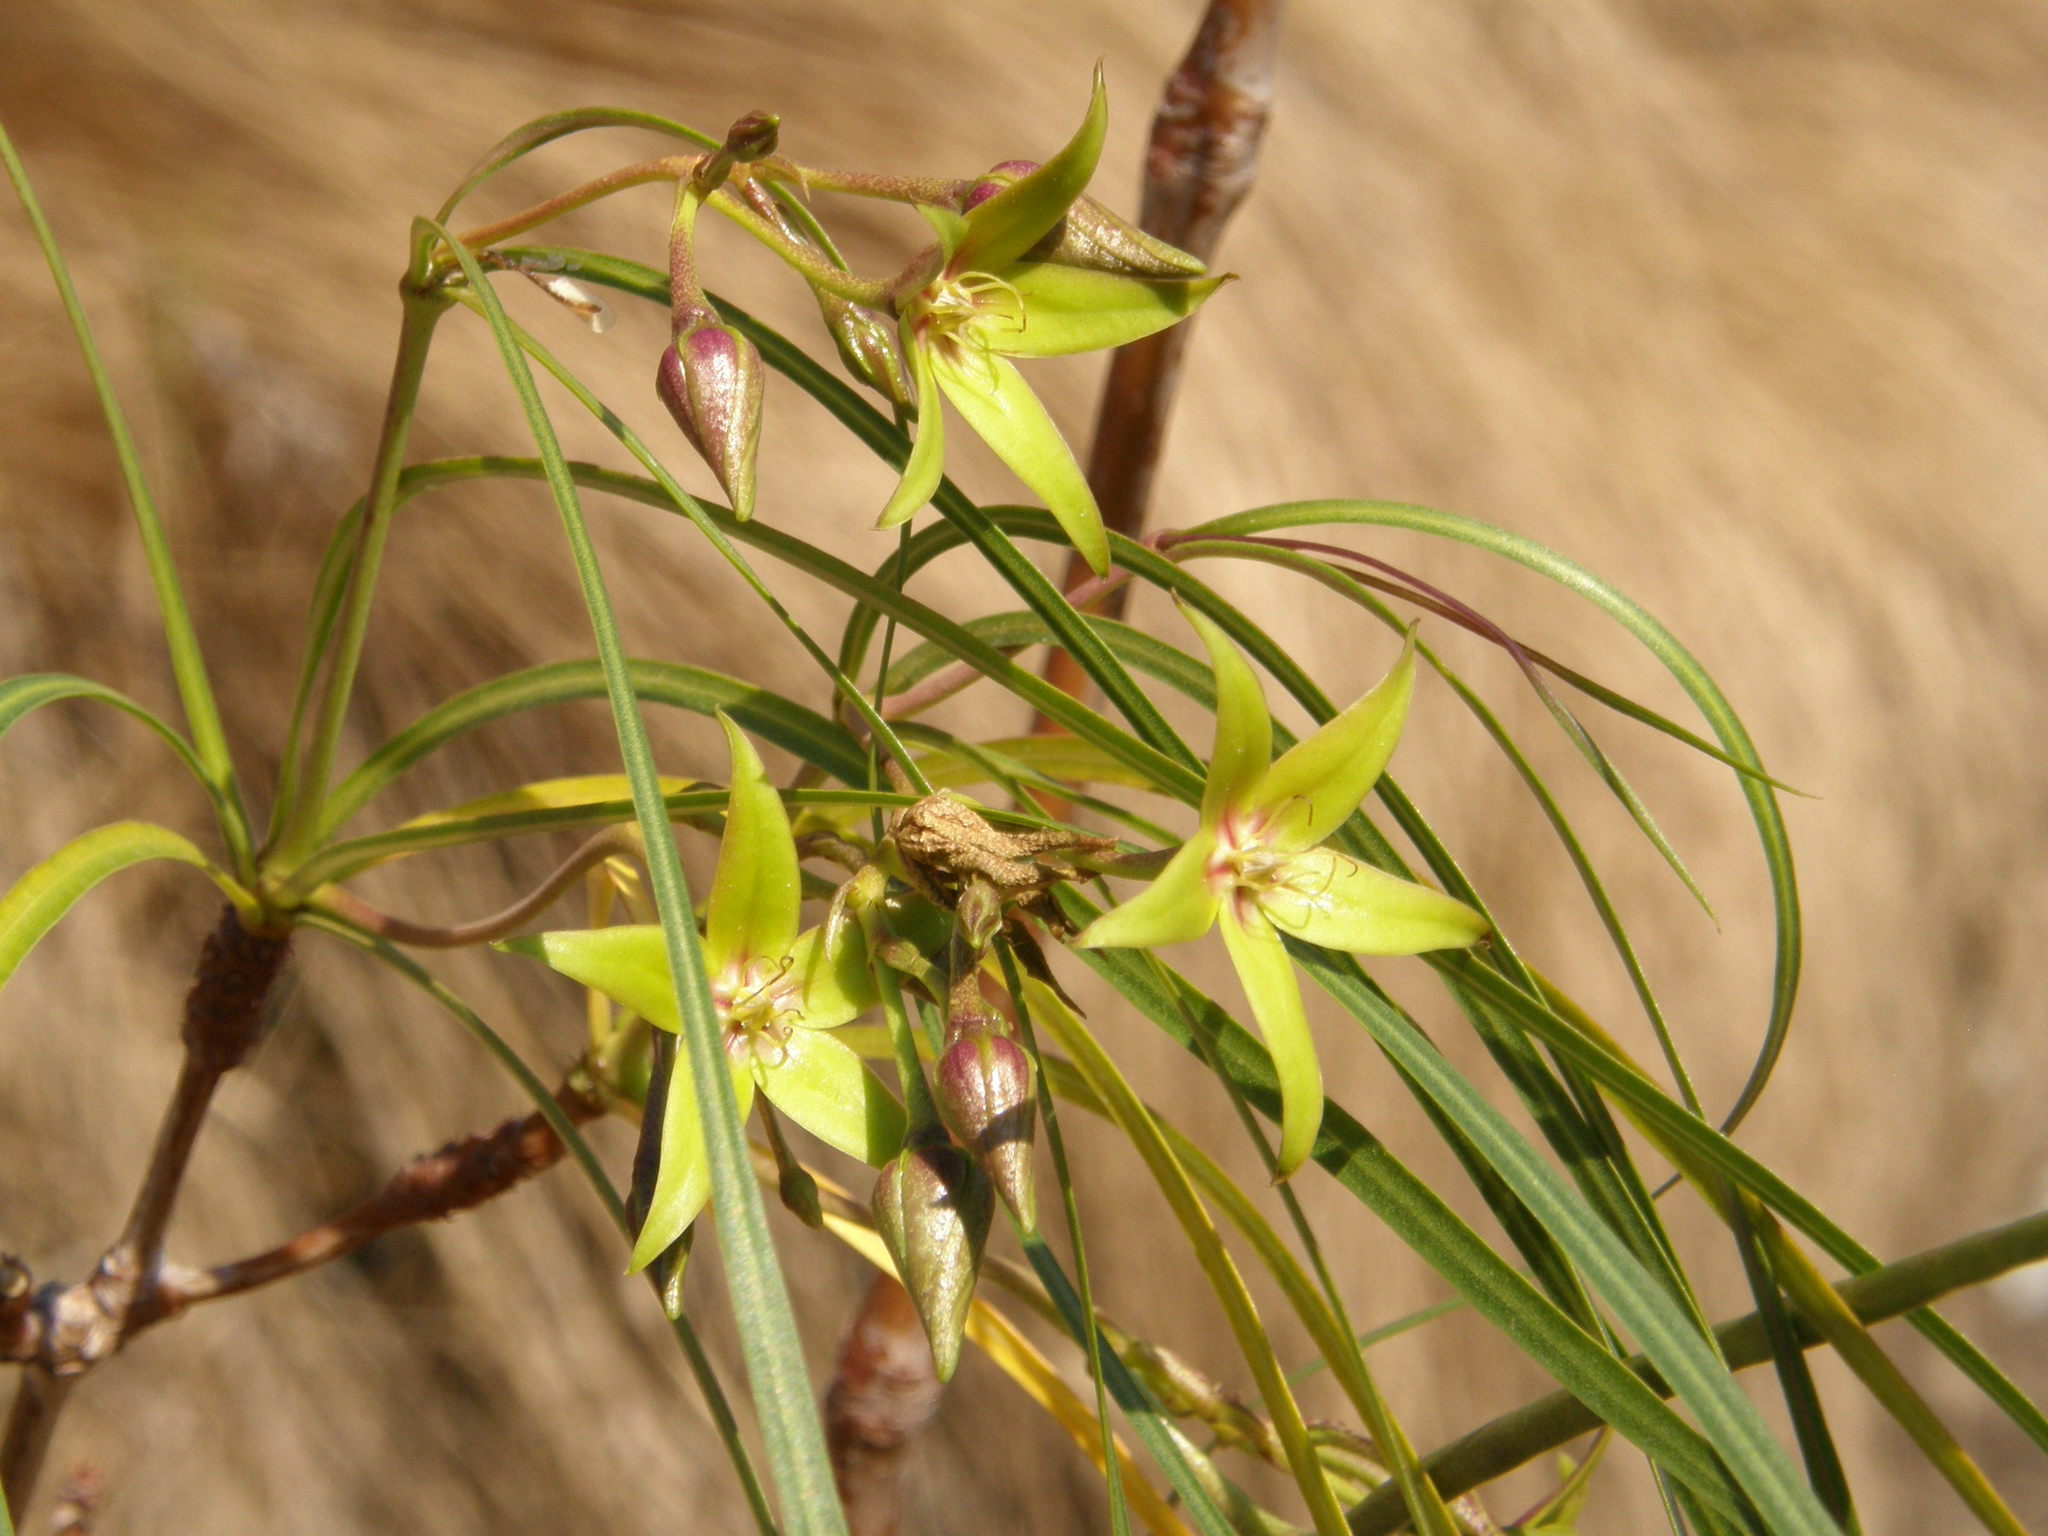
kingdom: Plantae
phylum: Tracheophyta
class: Magnoliopsida
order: Gentianales
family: Apocynaceae
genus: Ischnolepis
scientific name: Ischnolepis graminifolia
